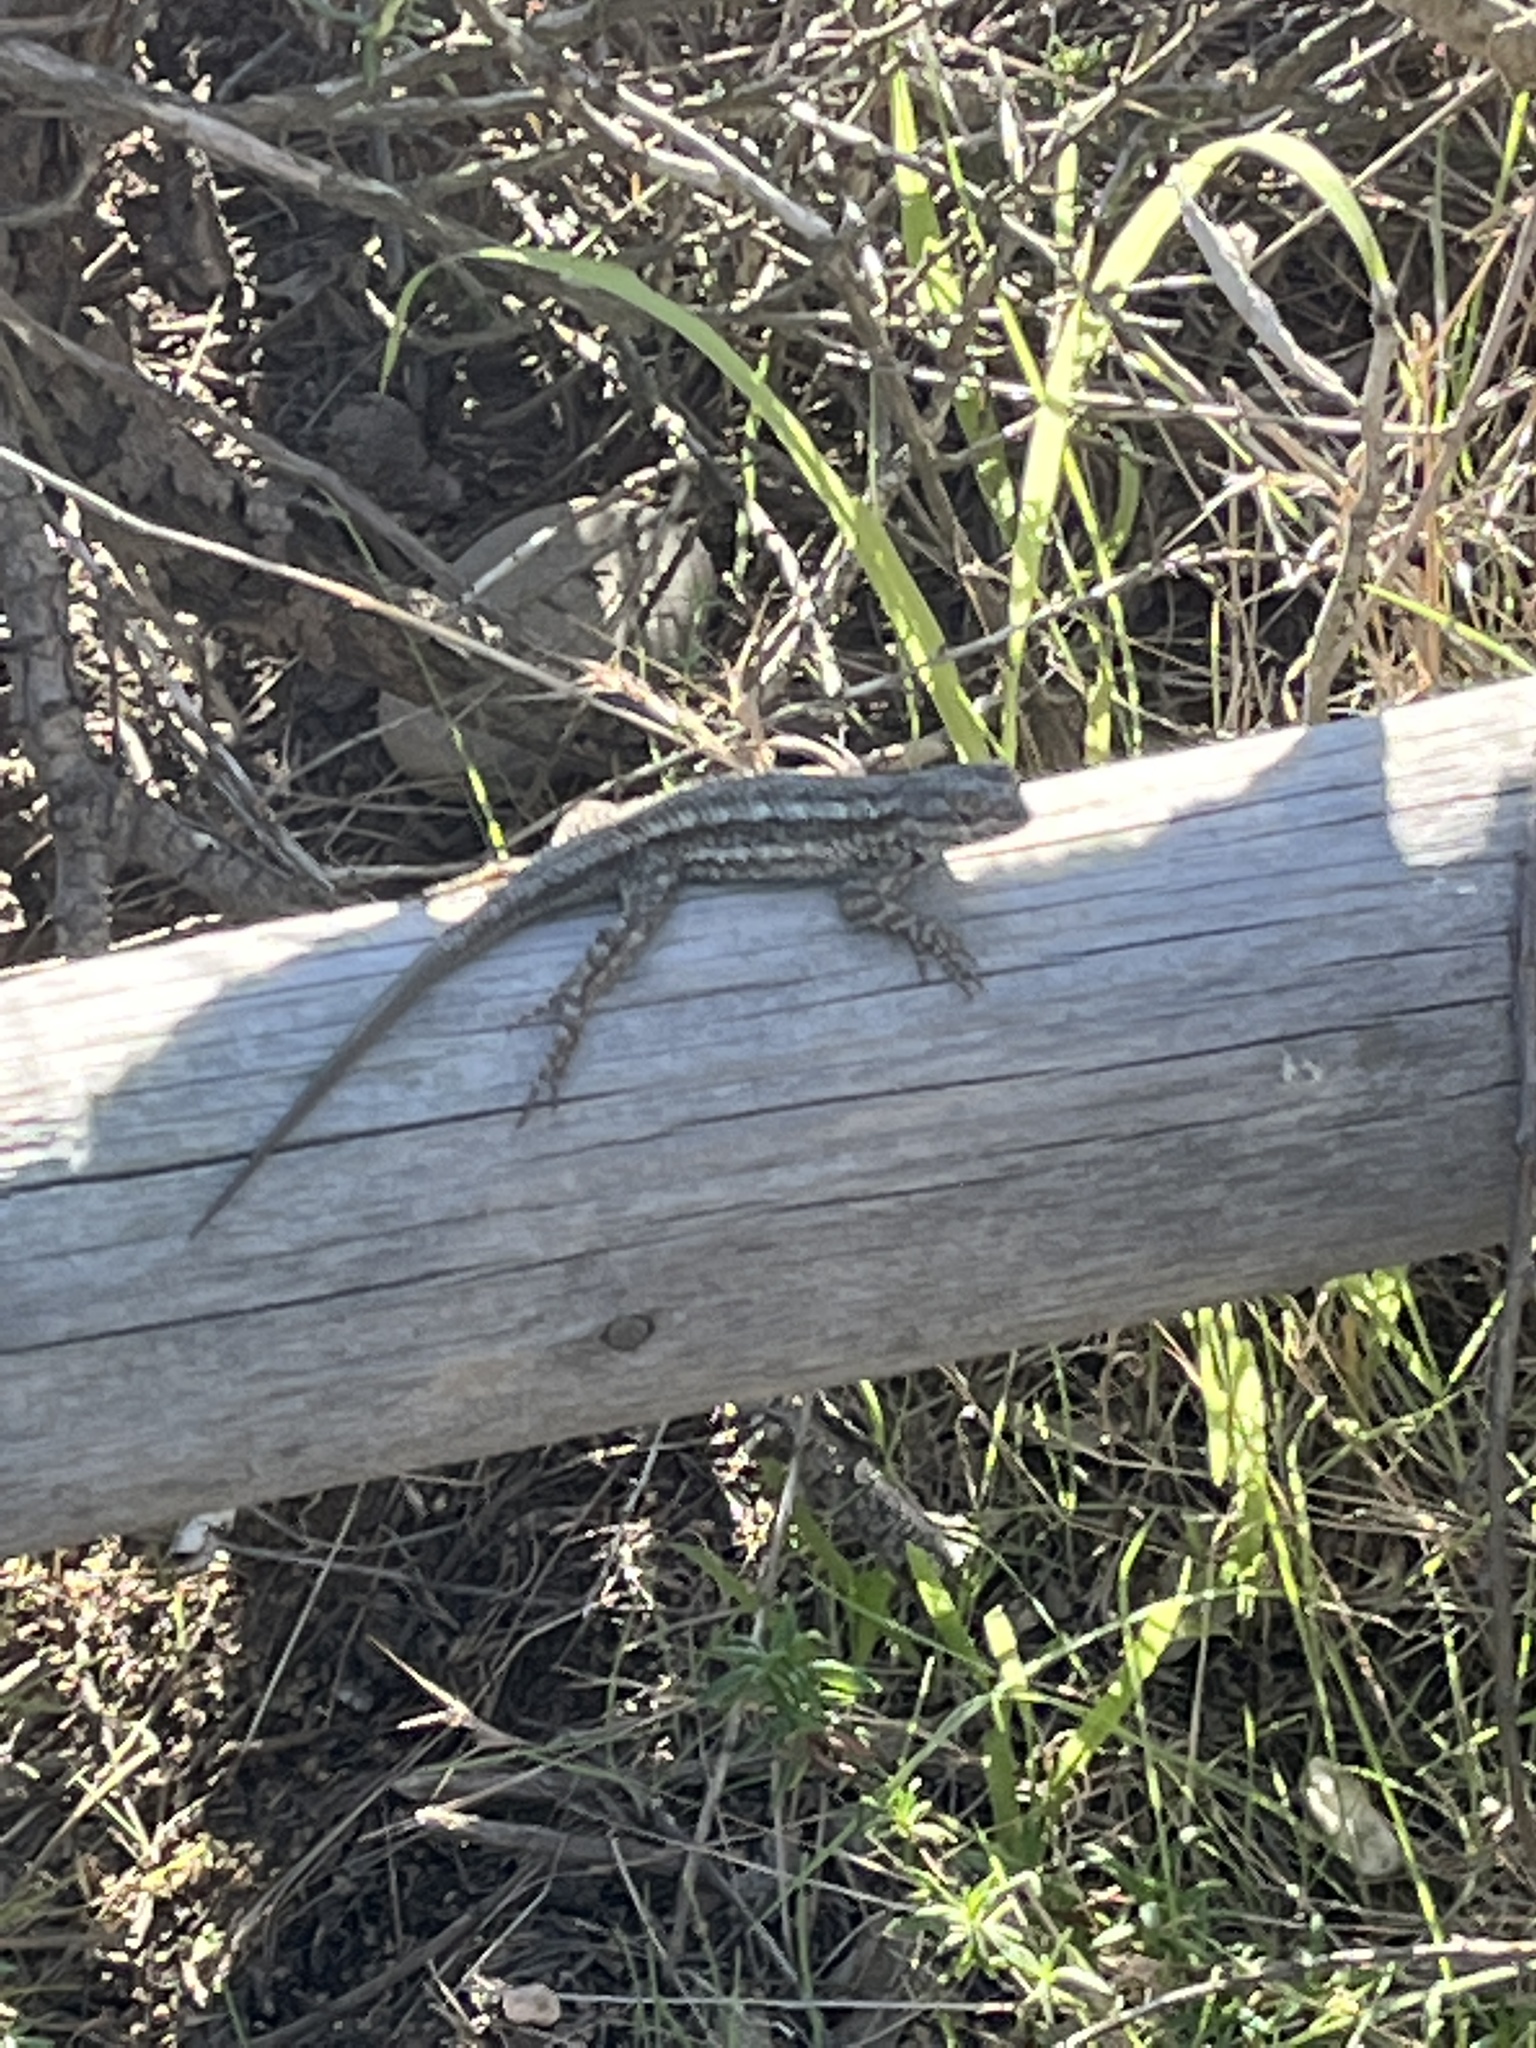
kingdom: Animalia
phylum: Chordata
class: Squamata
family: Phrynosomatidae
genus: Sceloporus
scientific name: Sceloporus occidentalis
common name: Western fence lizard
